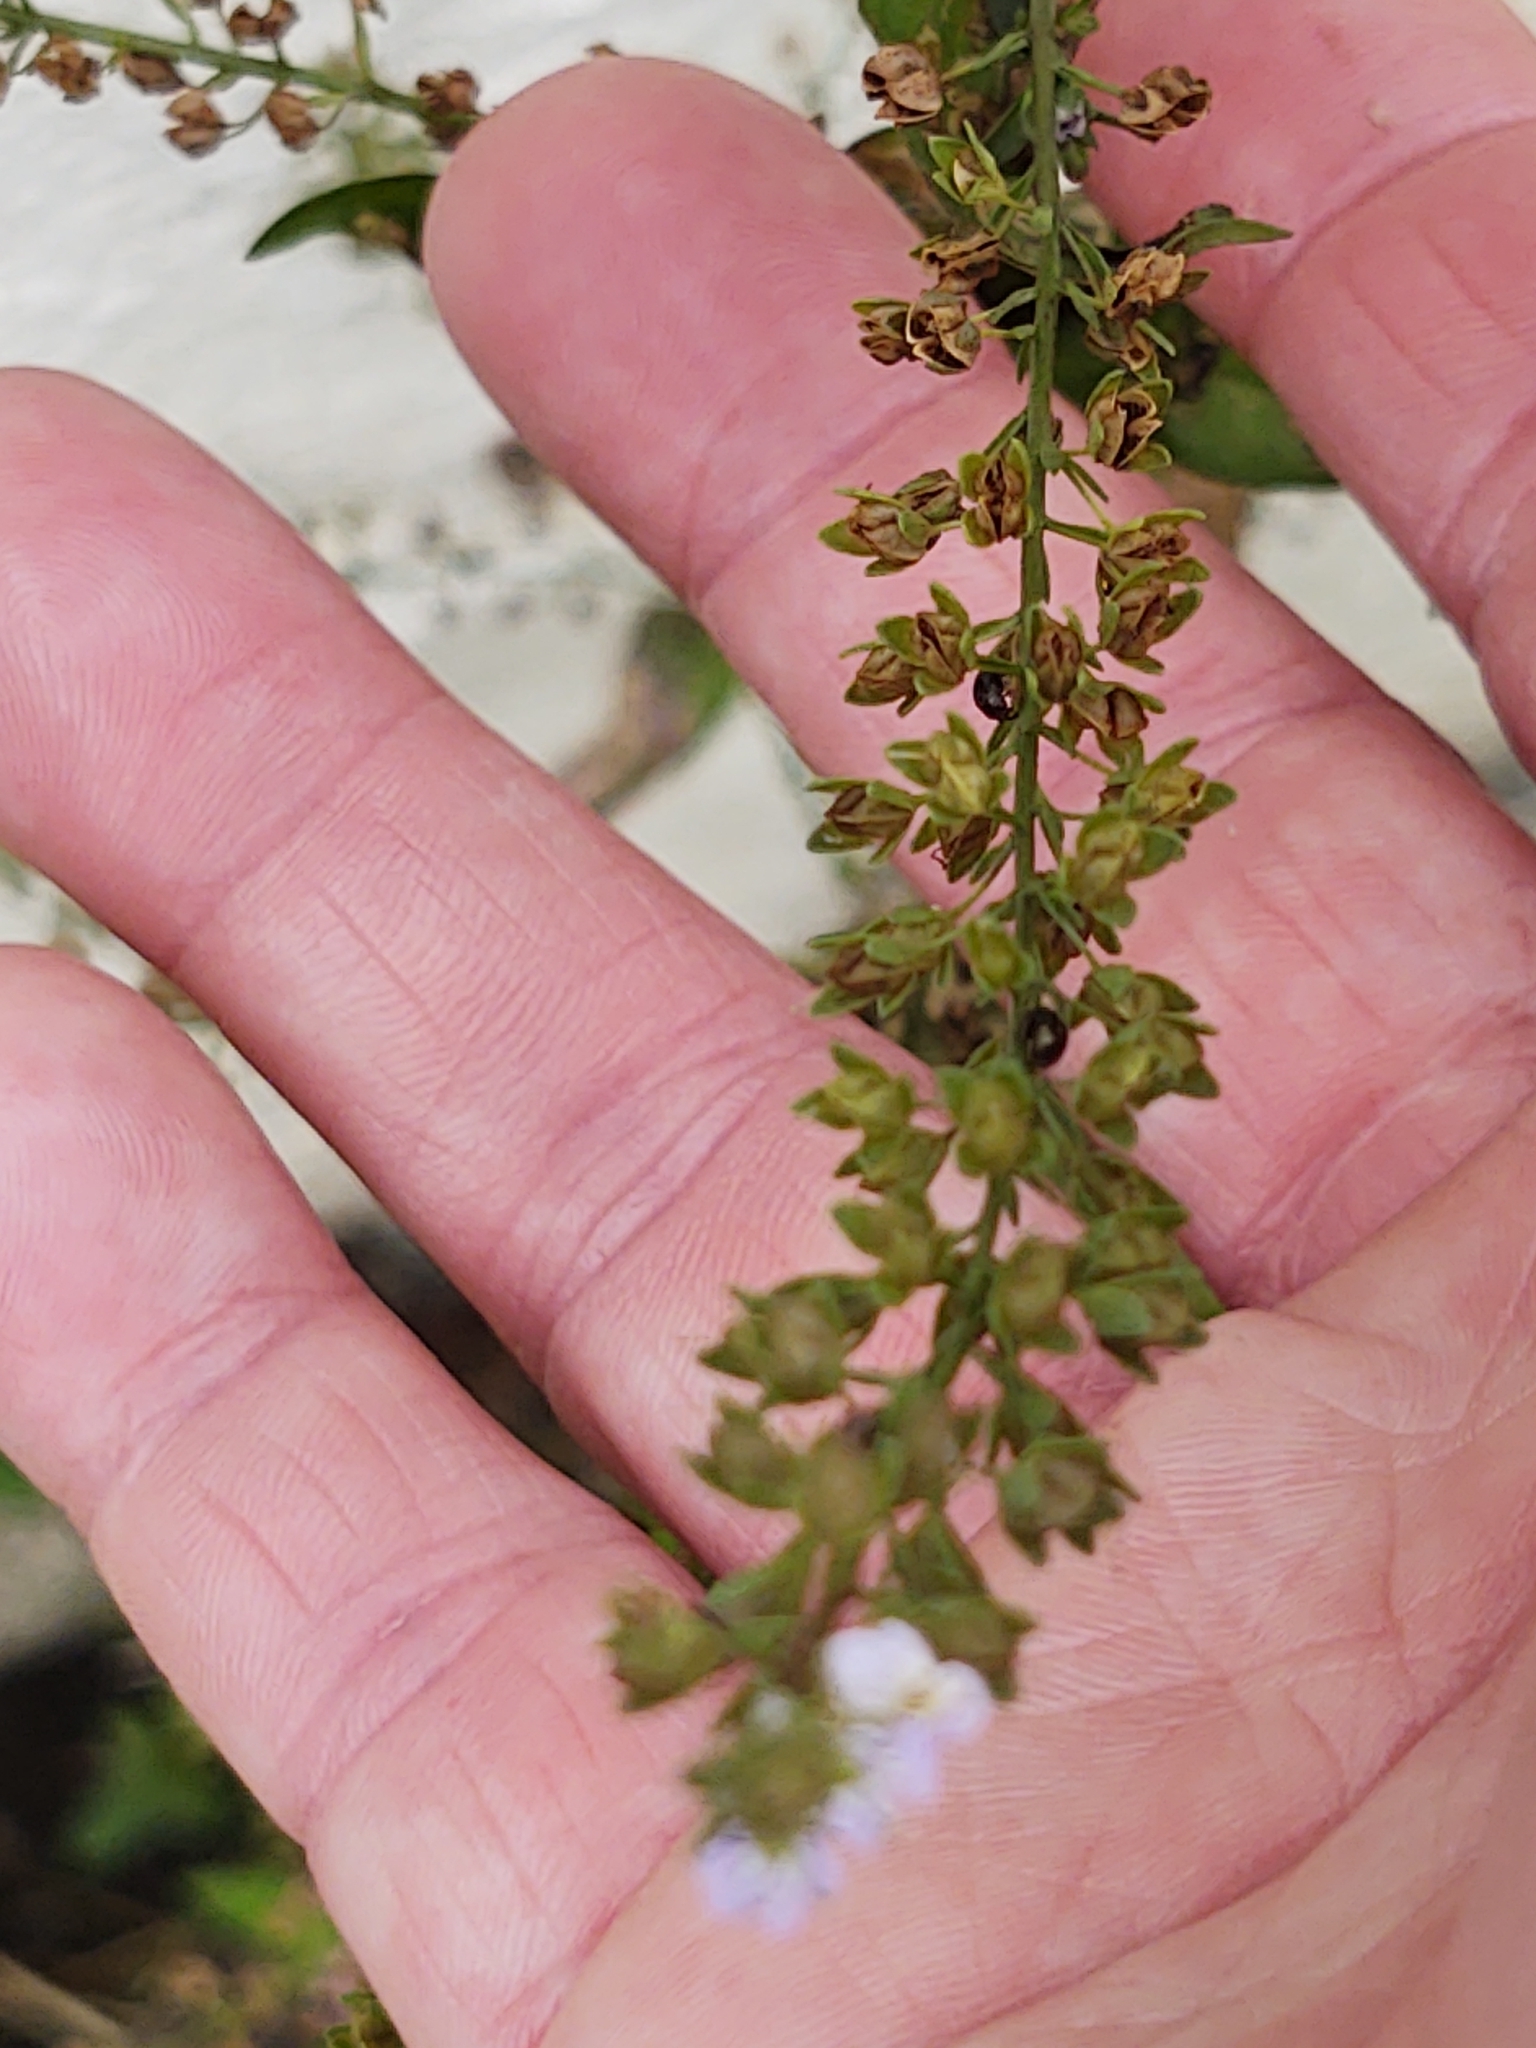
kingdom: Plantae
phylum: Tracheophyta
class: Magnoliopsida
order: Lamiales
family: Plantaginaceae
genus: Veronica
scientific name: Veronica anagallis-aquatica
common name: Water speedwell
